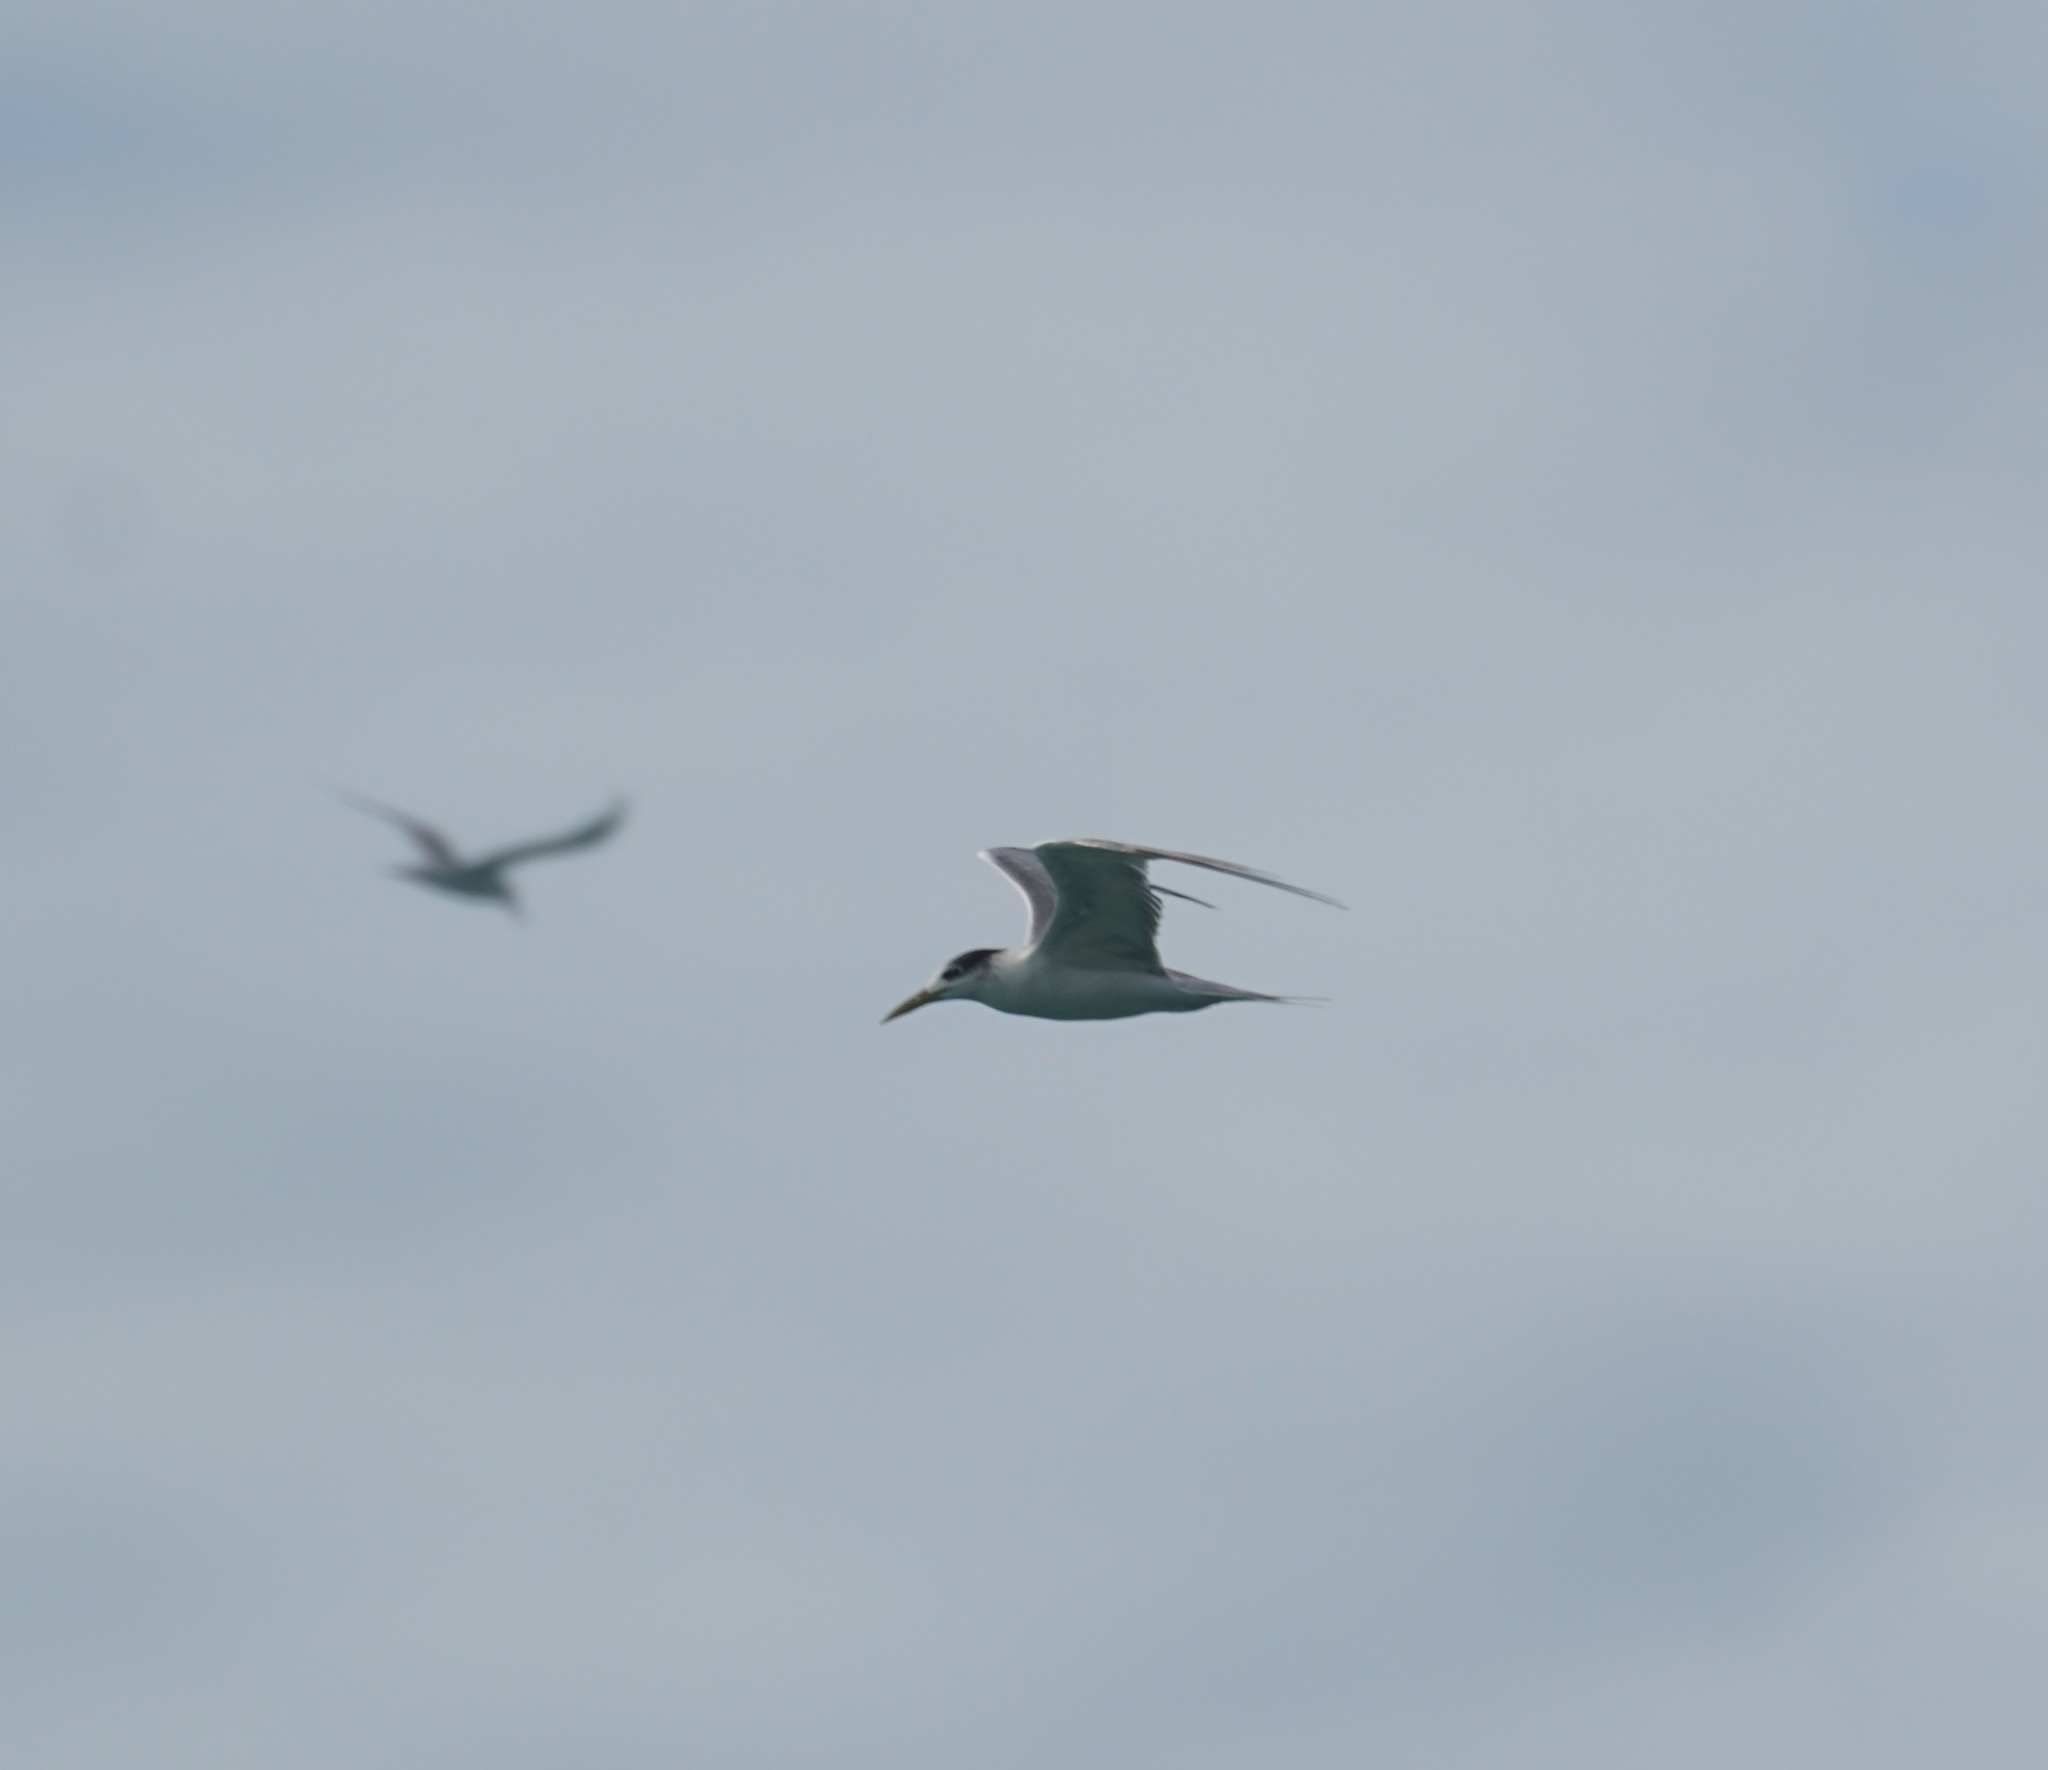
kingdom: Animalia
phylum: Chordata
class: Aves
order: Charadriiformes
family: Laridae
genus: Thalasseus
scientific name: Thalasseus bergii
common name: Greater crested tern
